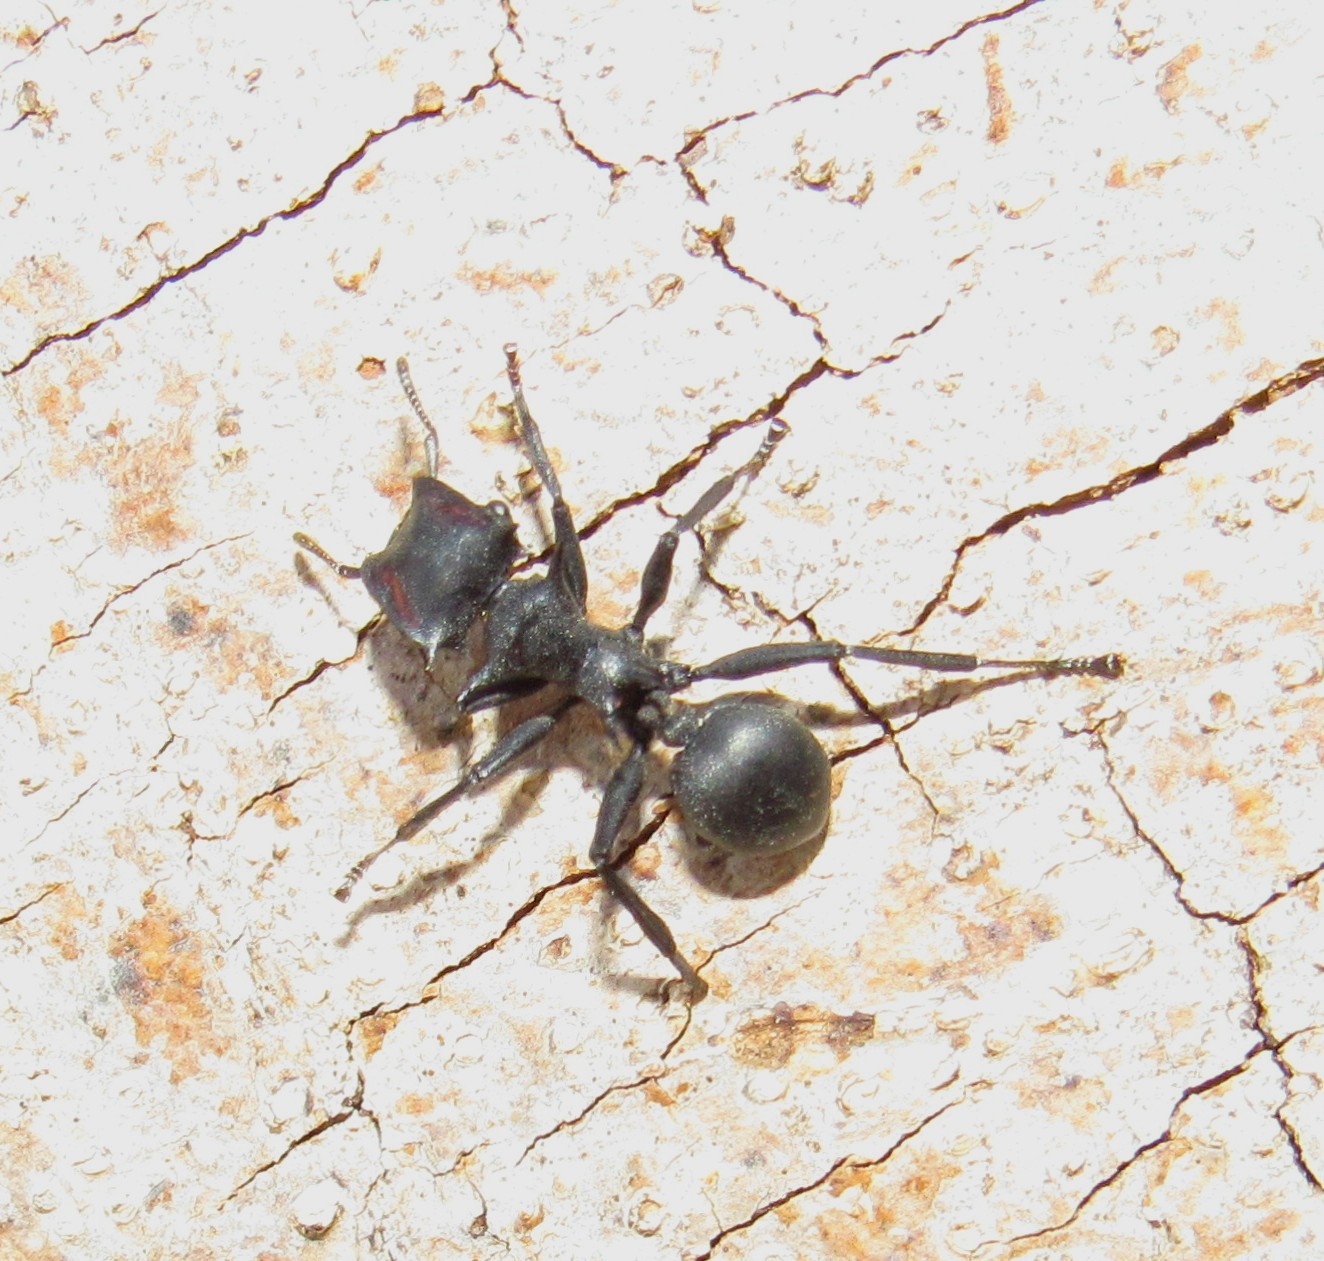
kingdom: Animalia
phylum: Arthropoda
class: Insecta
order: Hymenoptera
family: Formicidae
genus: Cephalotes
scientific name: Cephalotes atratus
